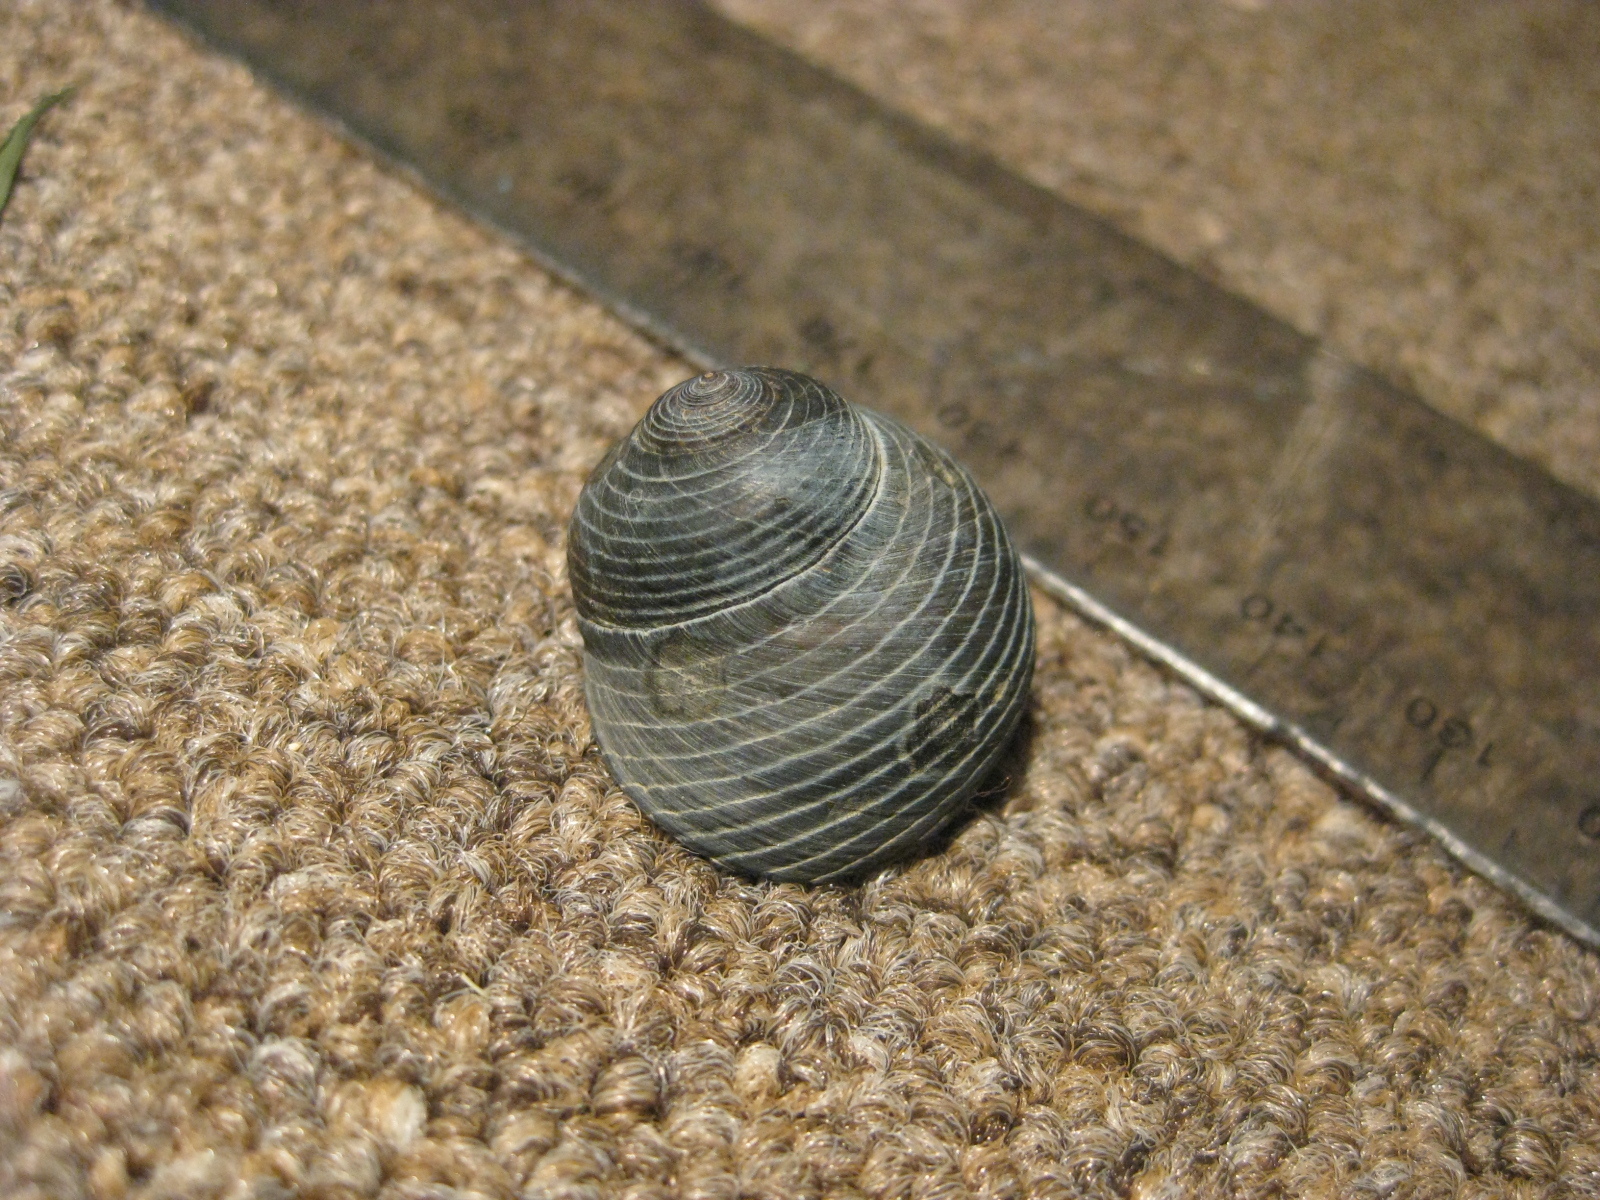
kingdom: Animalia
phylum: Mollusca
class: Gastropoda
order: Trochida
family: Trochidae
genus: Diloma
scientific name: Diloma zelandicum
